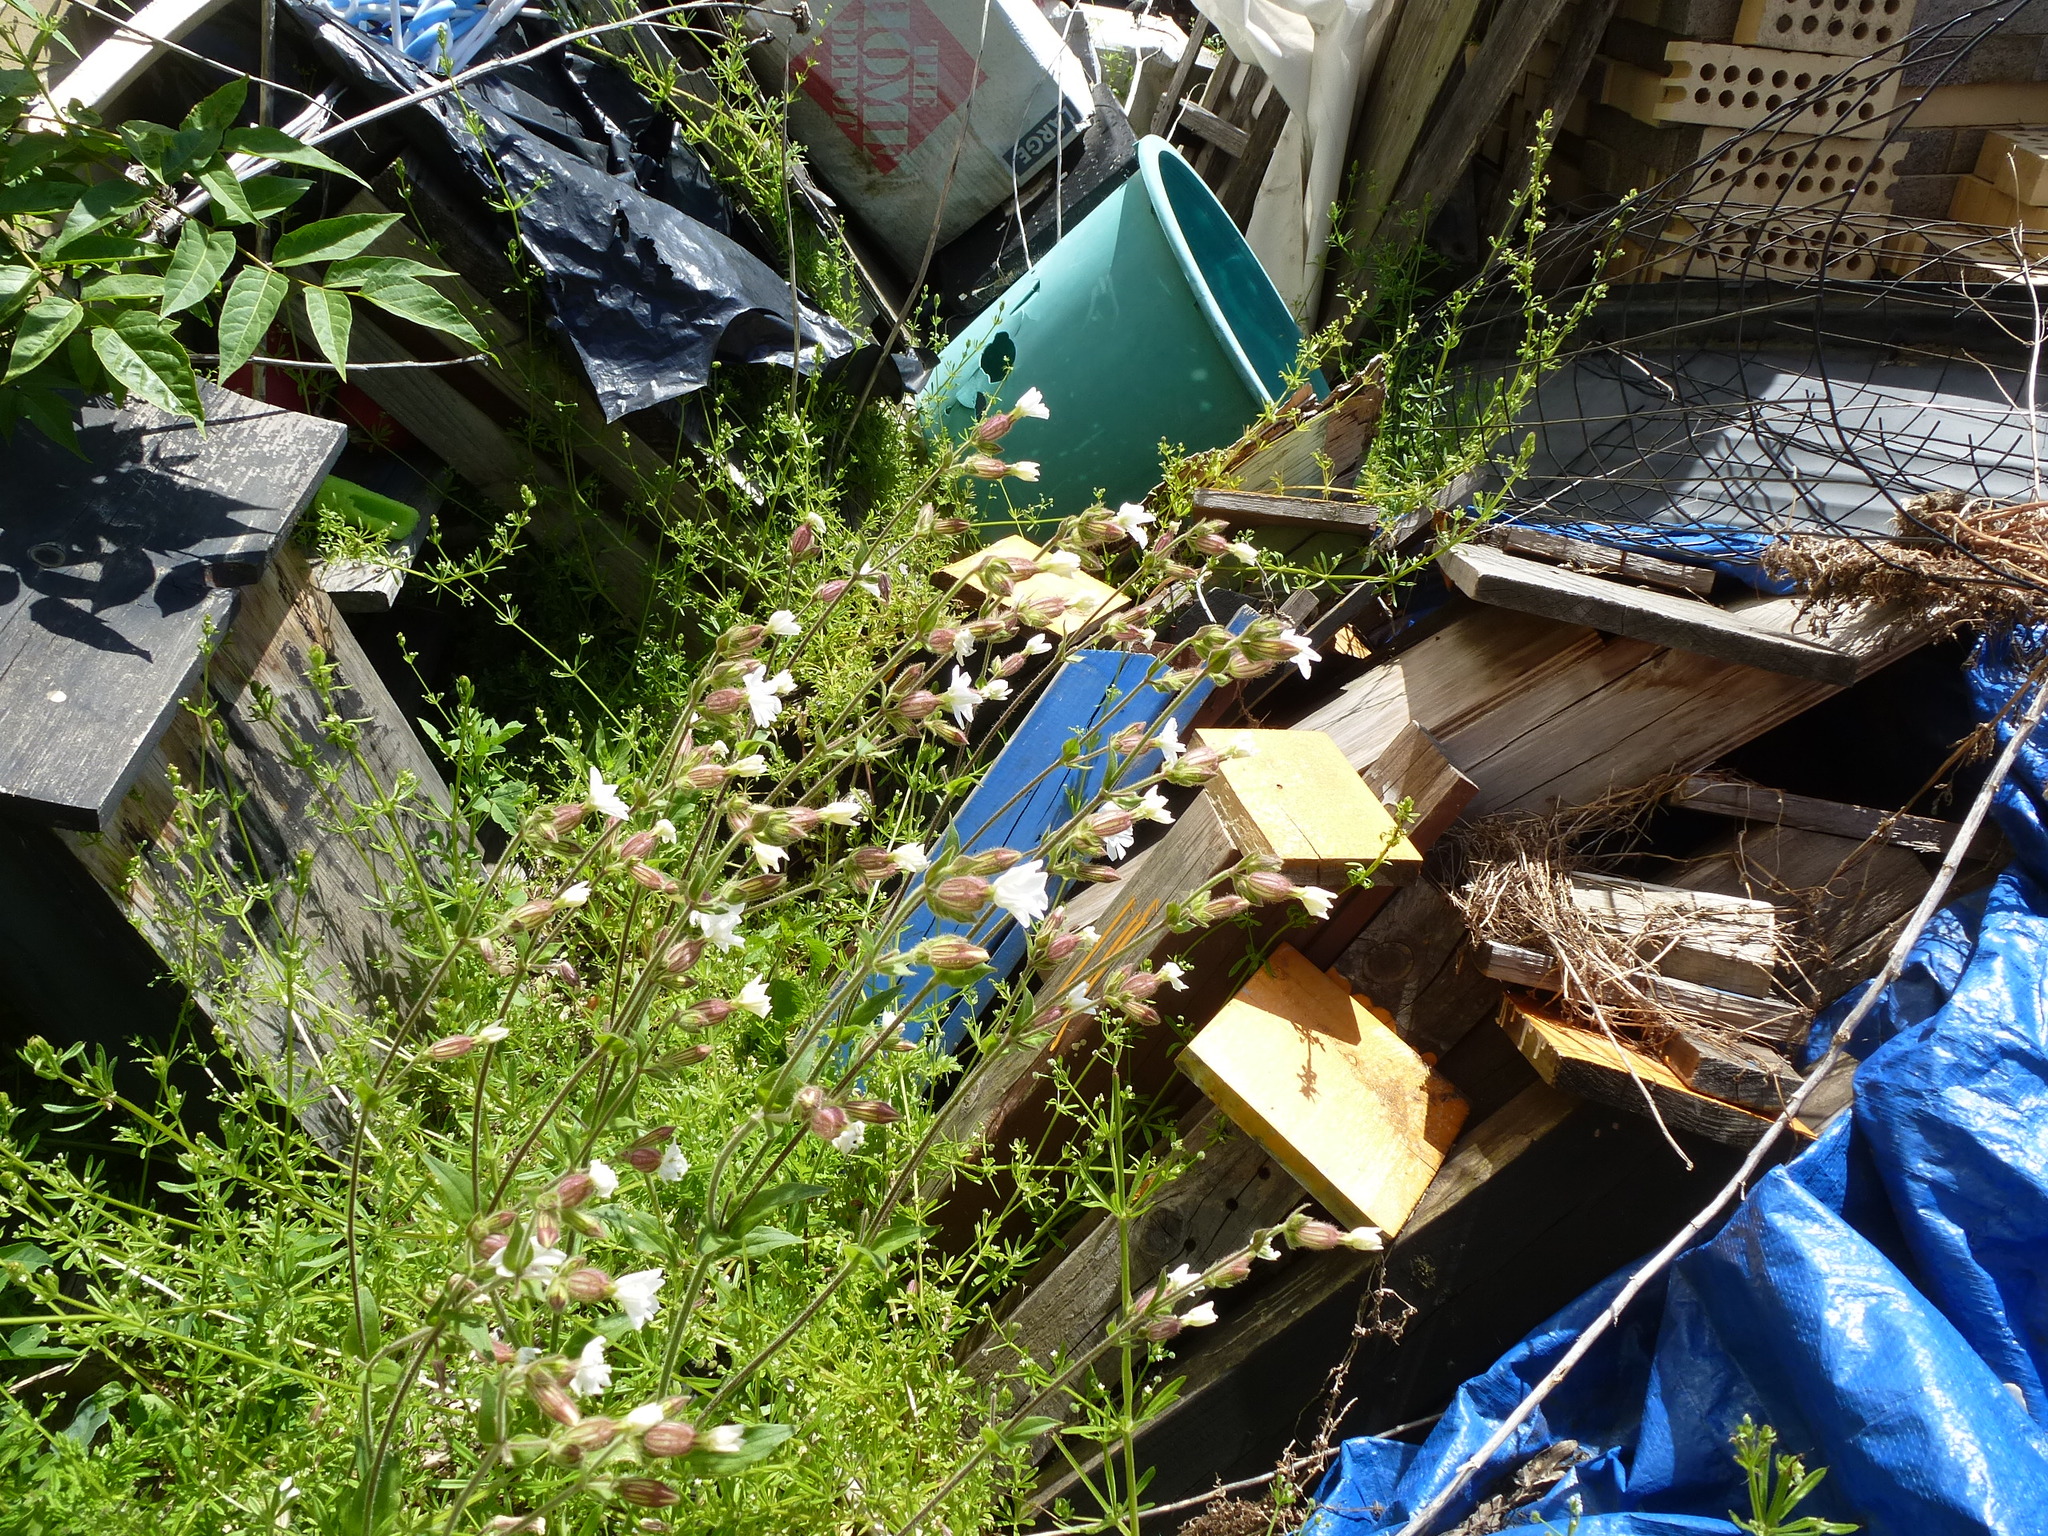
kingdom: Plantae
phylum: Tracheophyta
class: Magnoliopsida
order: Caryophyllales
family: Caryophyllaceae
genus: Silene
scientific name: Silene latifolia
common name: White campion
